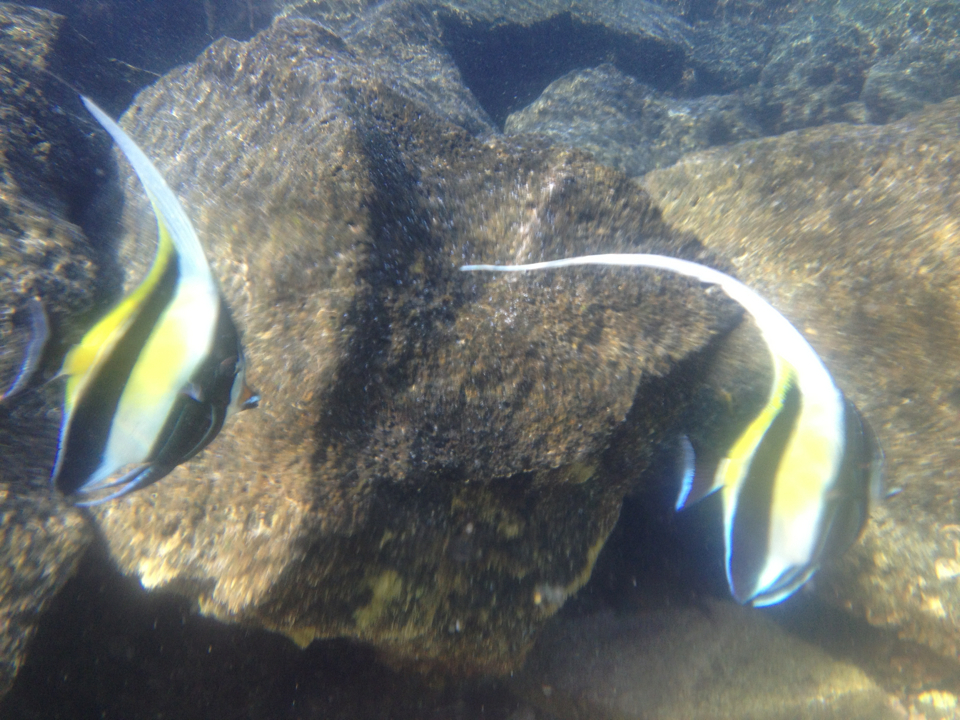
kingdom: Animalia
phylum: Chordata
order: Perciformes
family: Zanclidae
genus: Zanclus
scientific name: Zanclus cornutus
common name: Moorish idol
